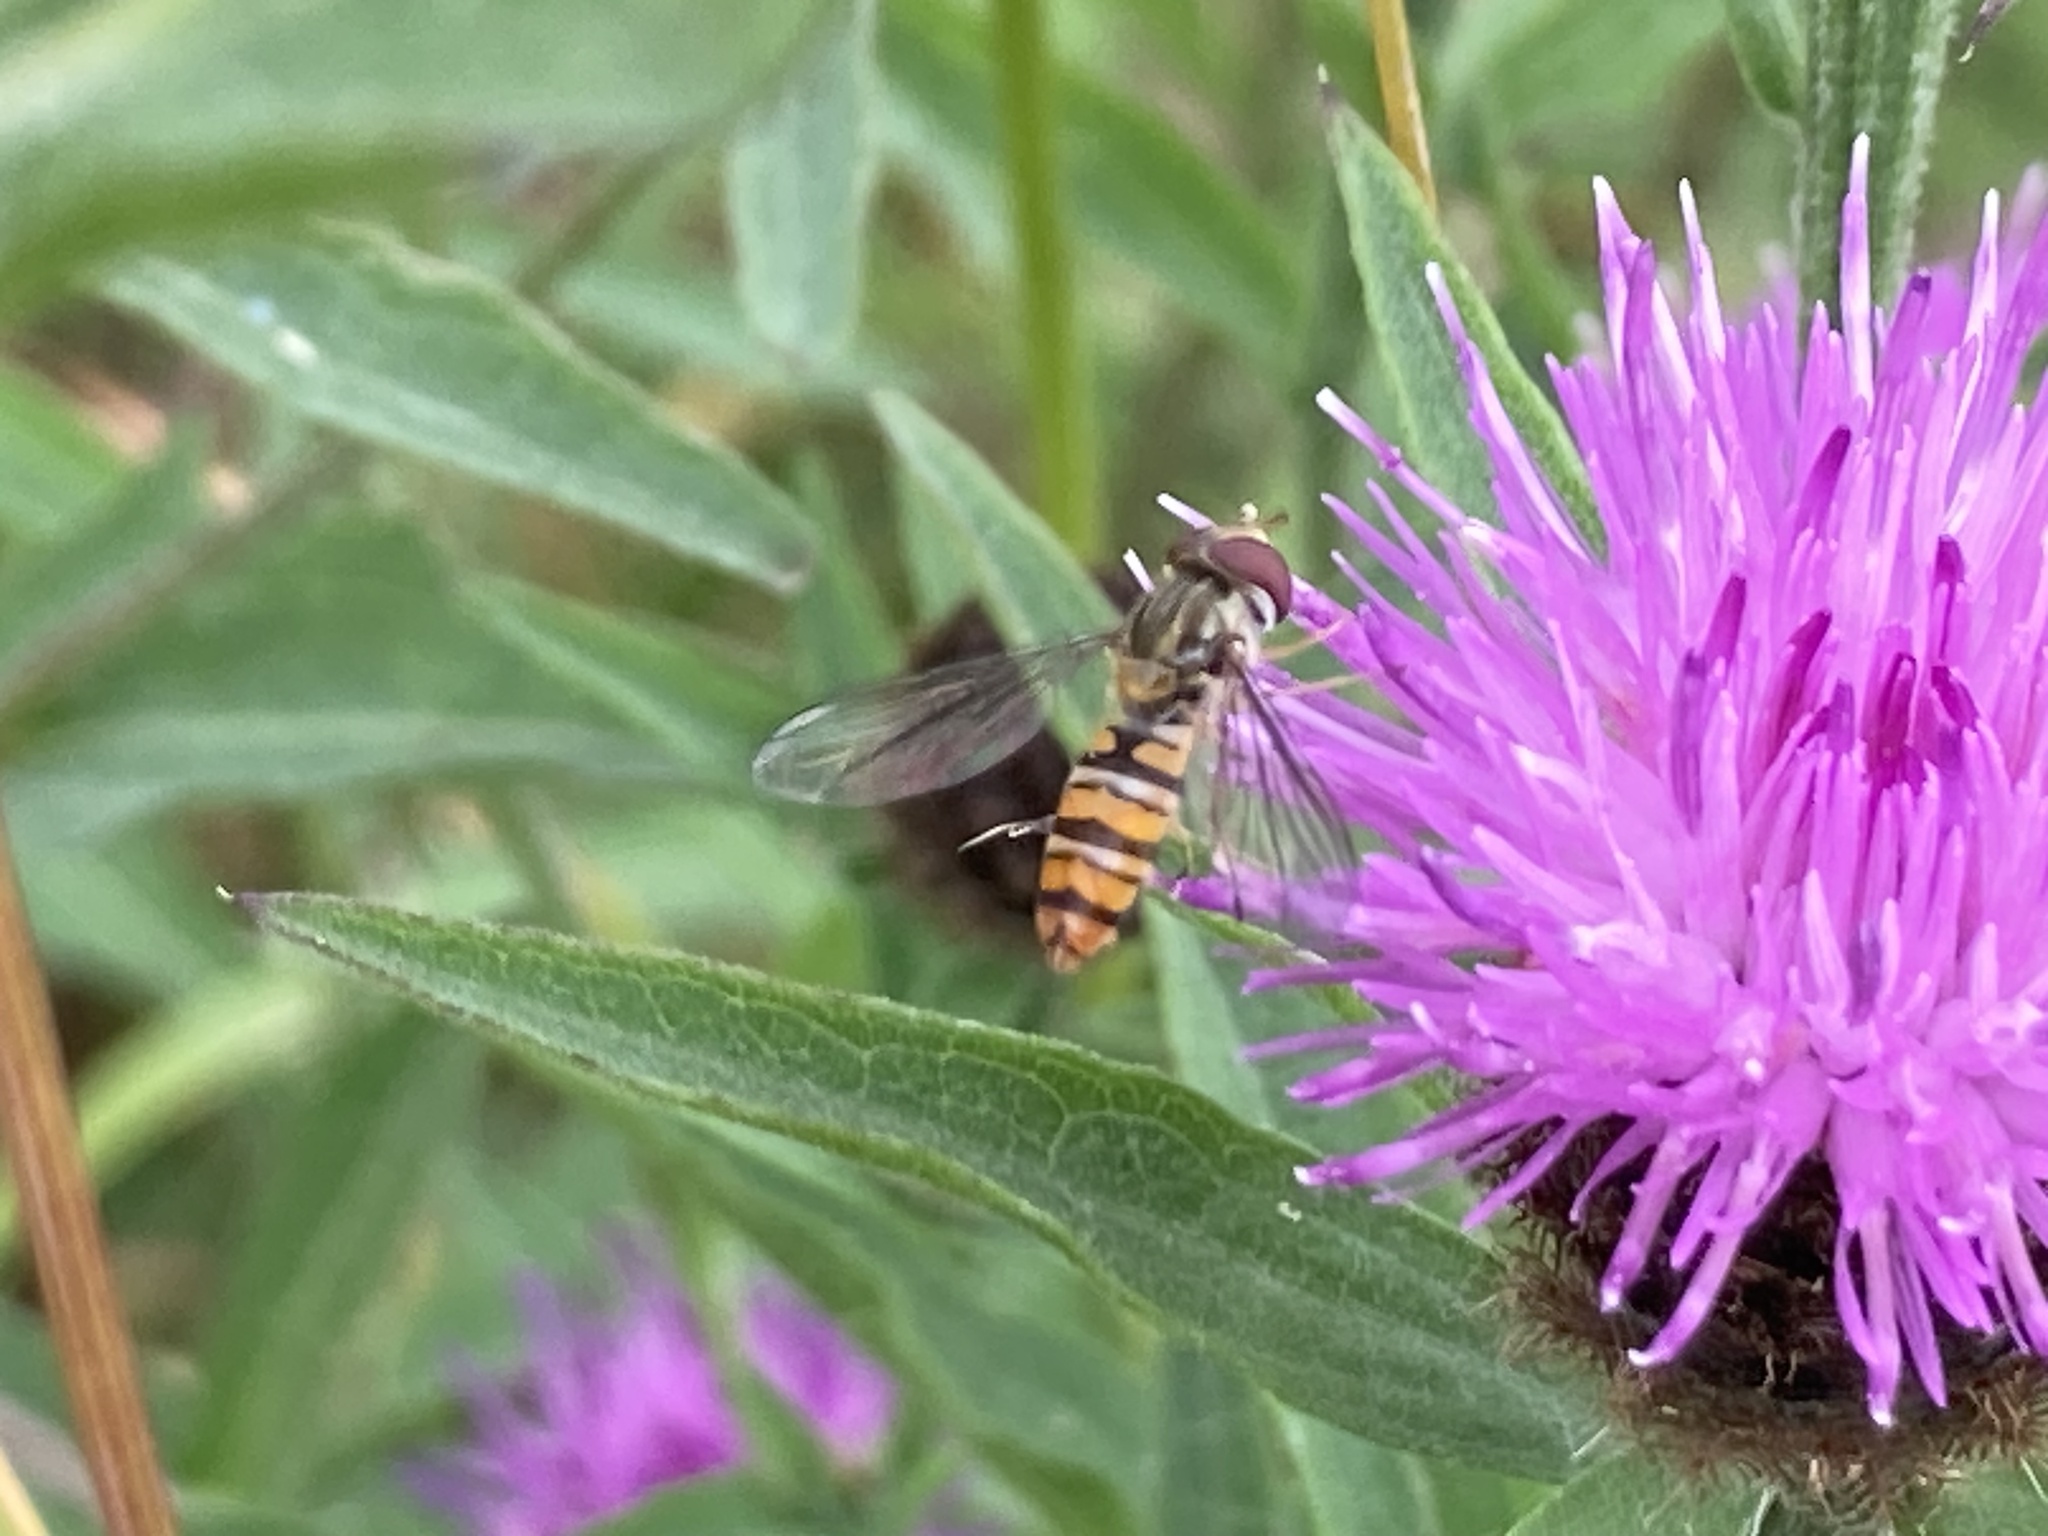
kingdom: Animalia
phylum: Arthropoda
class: Insecta
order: Diptera
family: Syrphidae
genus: Episyrphus
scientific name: Episyrphus balteatus
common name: Marmalade hoverfly
